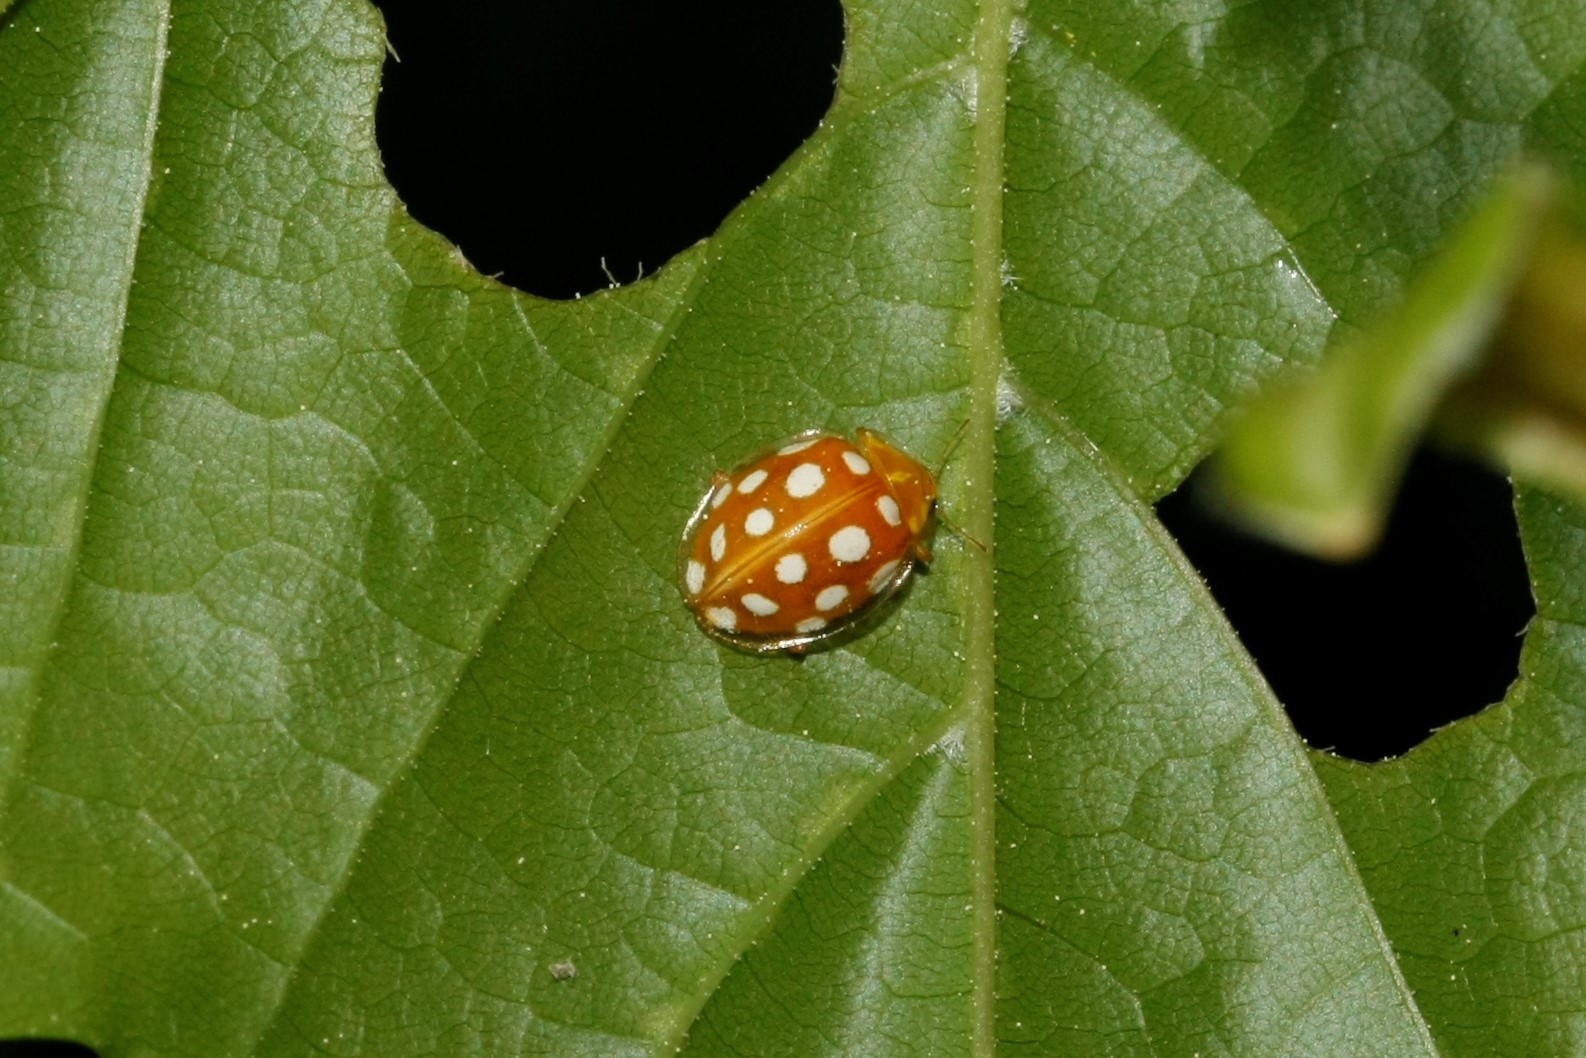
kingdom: Animalia
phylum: Arthropoda
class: Insecta
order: Coleoptera
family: Coccinellidae
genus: Halyzia
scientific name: Halyzia sedecimguttata
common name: Orange ladybird
